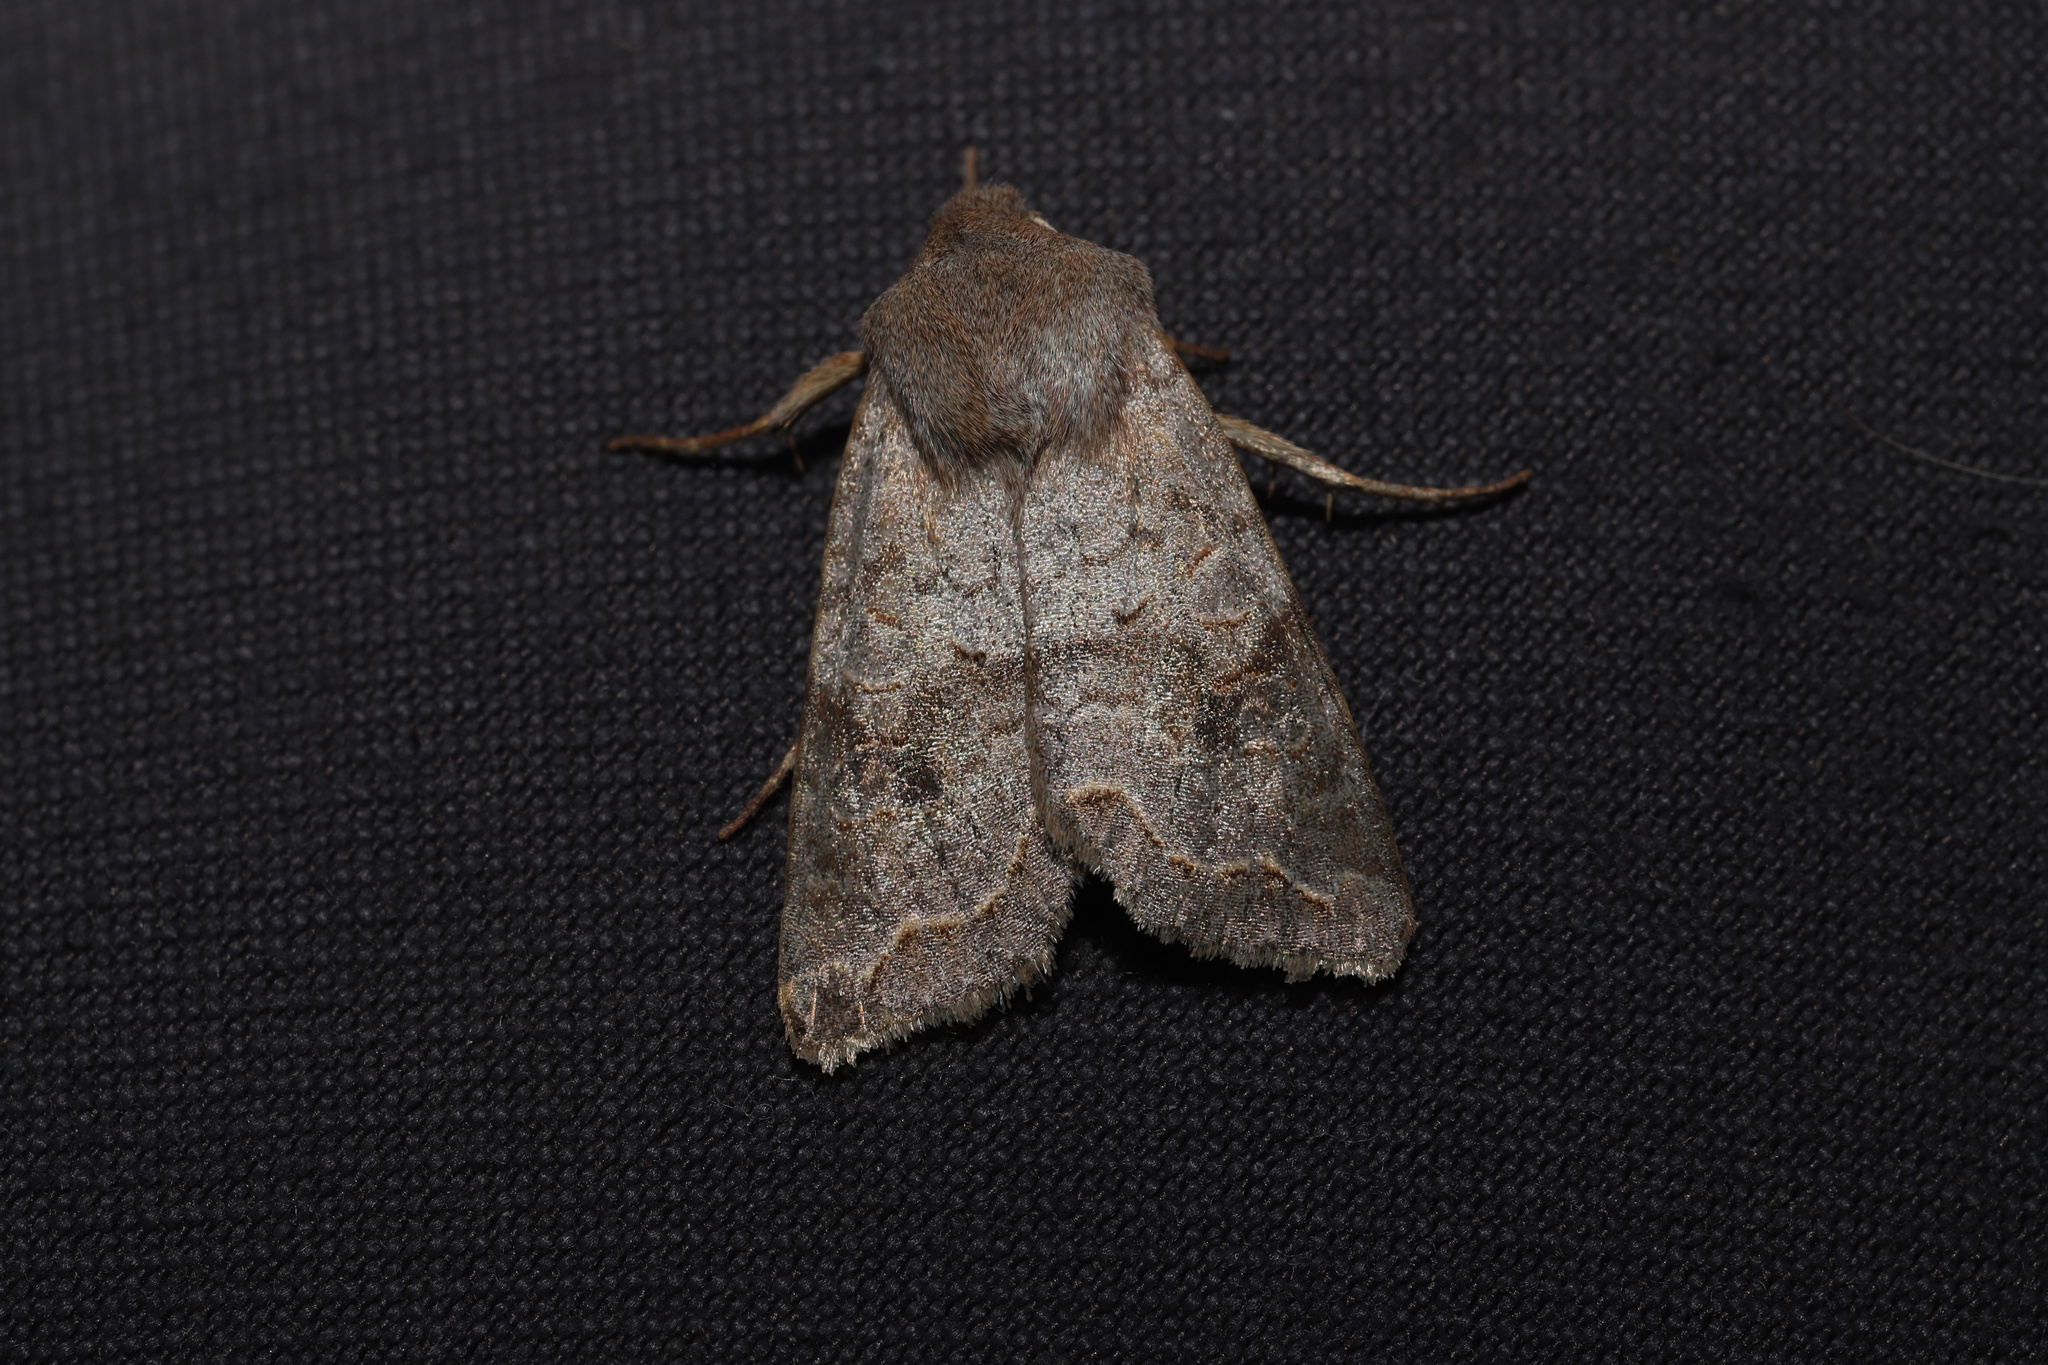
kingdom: Animalia
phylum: Arthropoda
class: Insecta
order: Lepidoptera
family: Noctuidae
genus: Orthosia
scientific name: Orthosia revicta
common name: Rusty whitesided caterpillar
